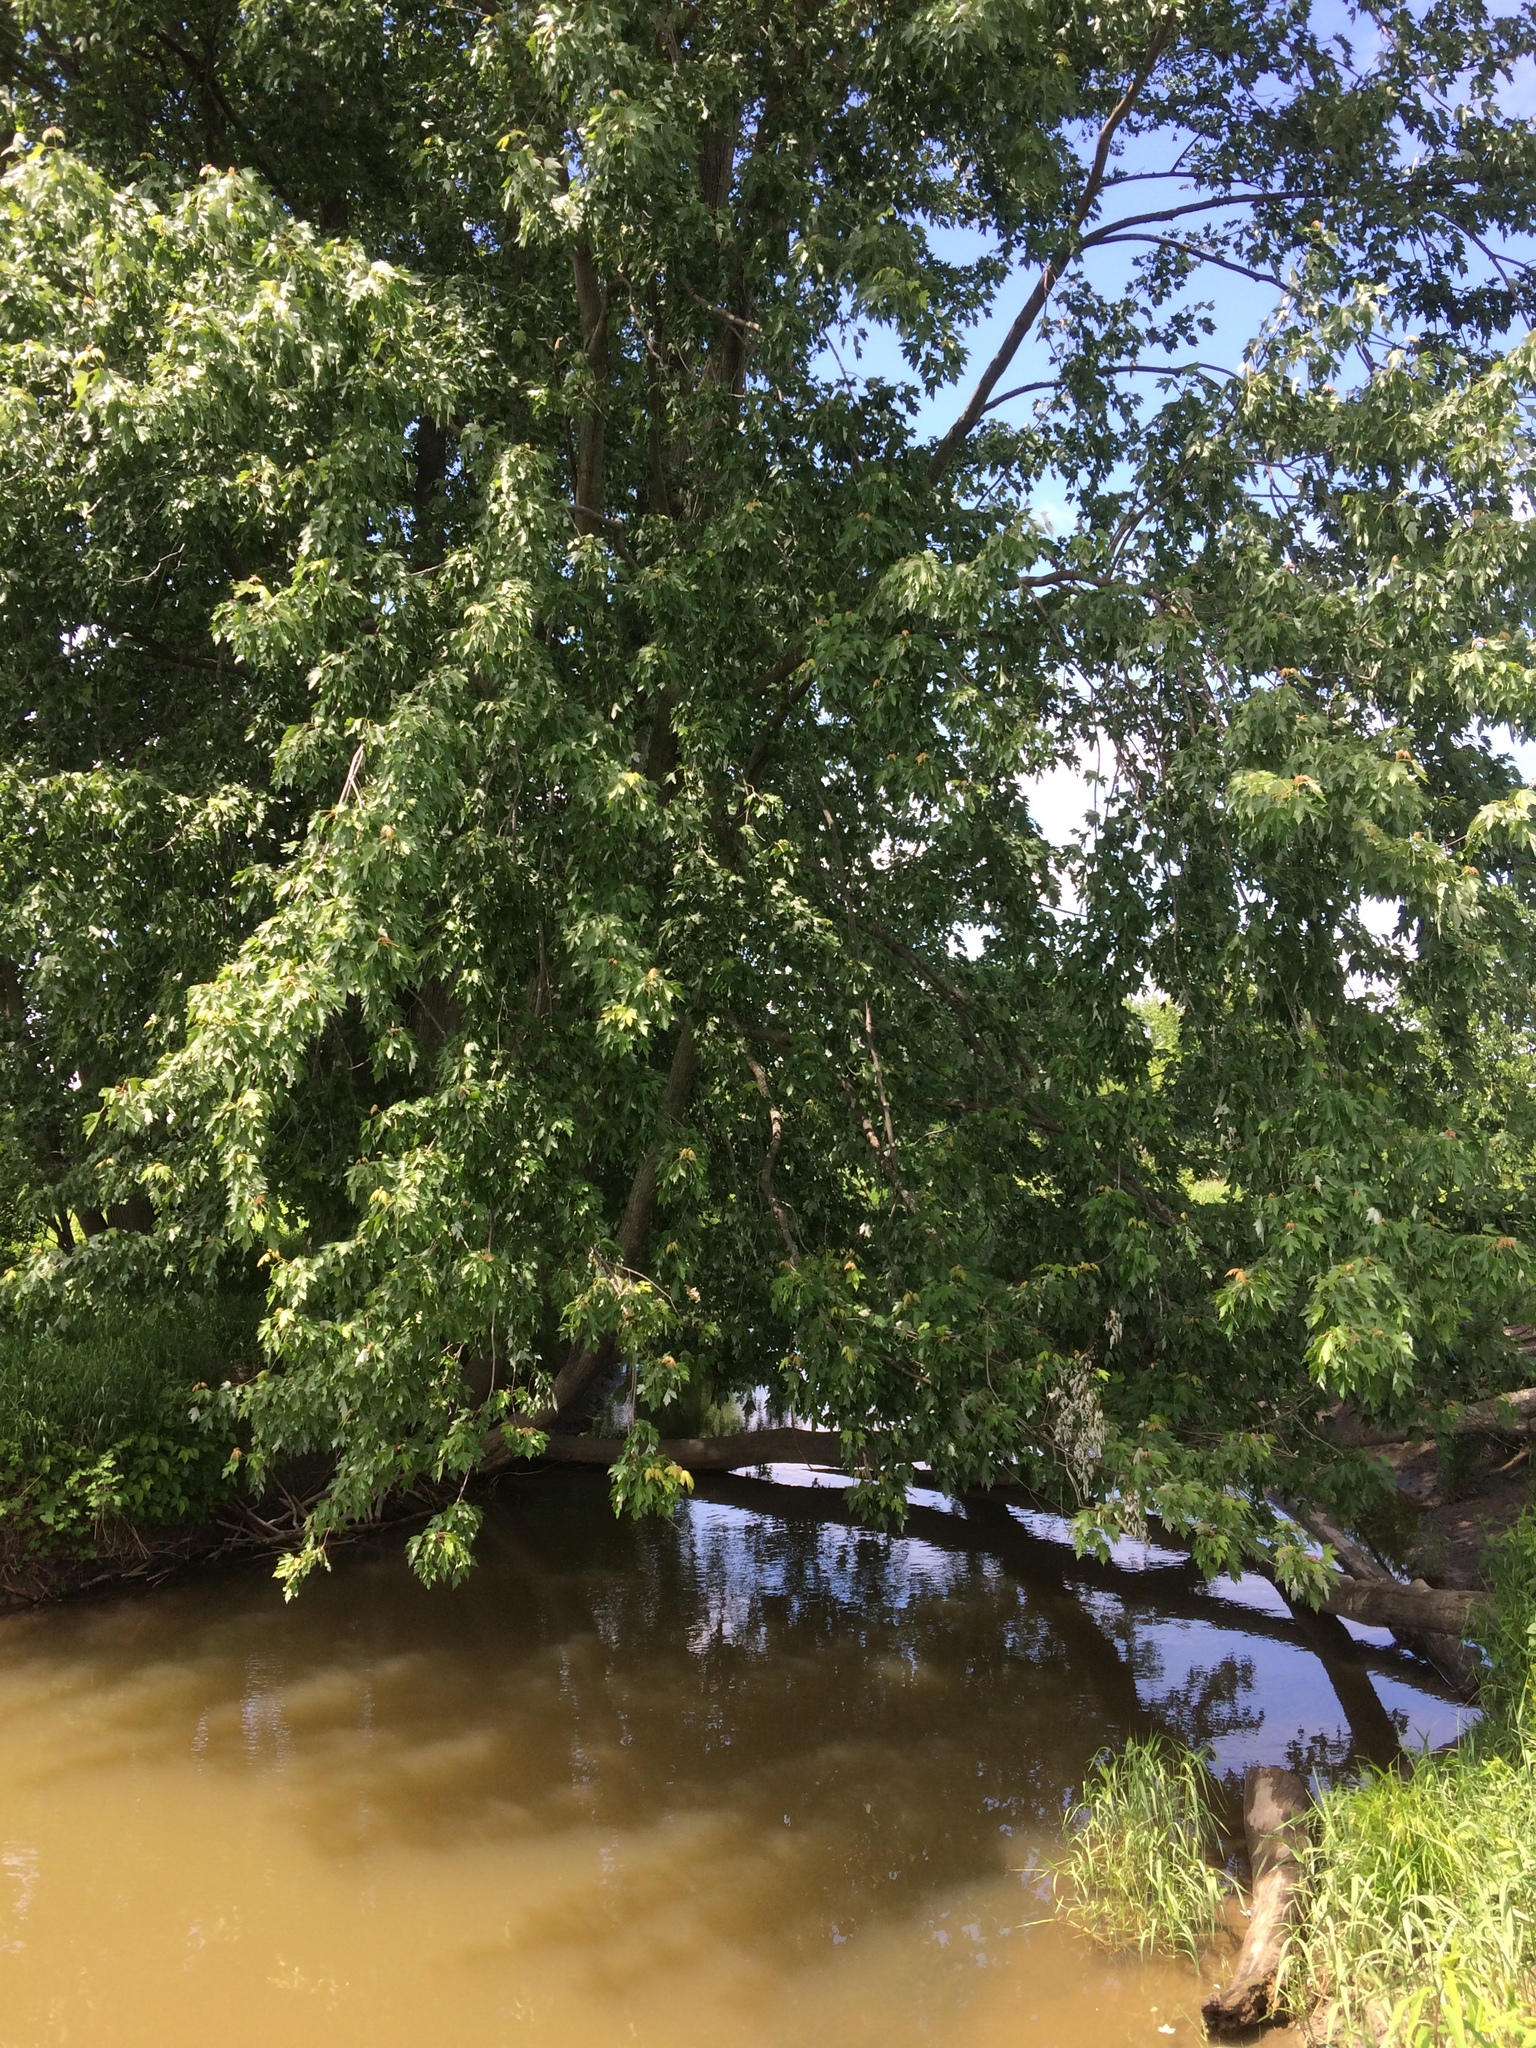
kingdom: Plantae
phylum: Tracheophyta
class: Magnoliopsida
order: Sapindales
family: Sapindaceae
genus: Acer
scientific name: Acer saccharinum
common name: Silver maple
